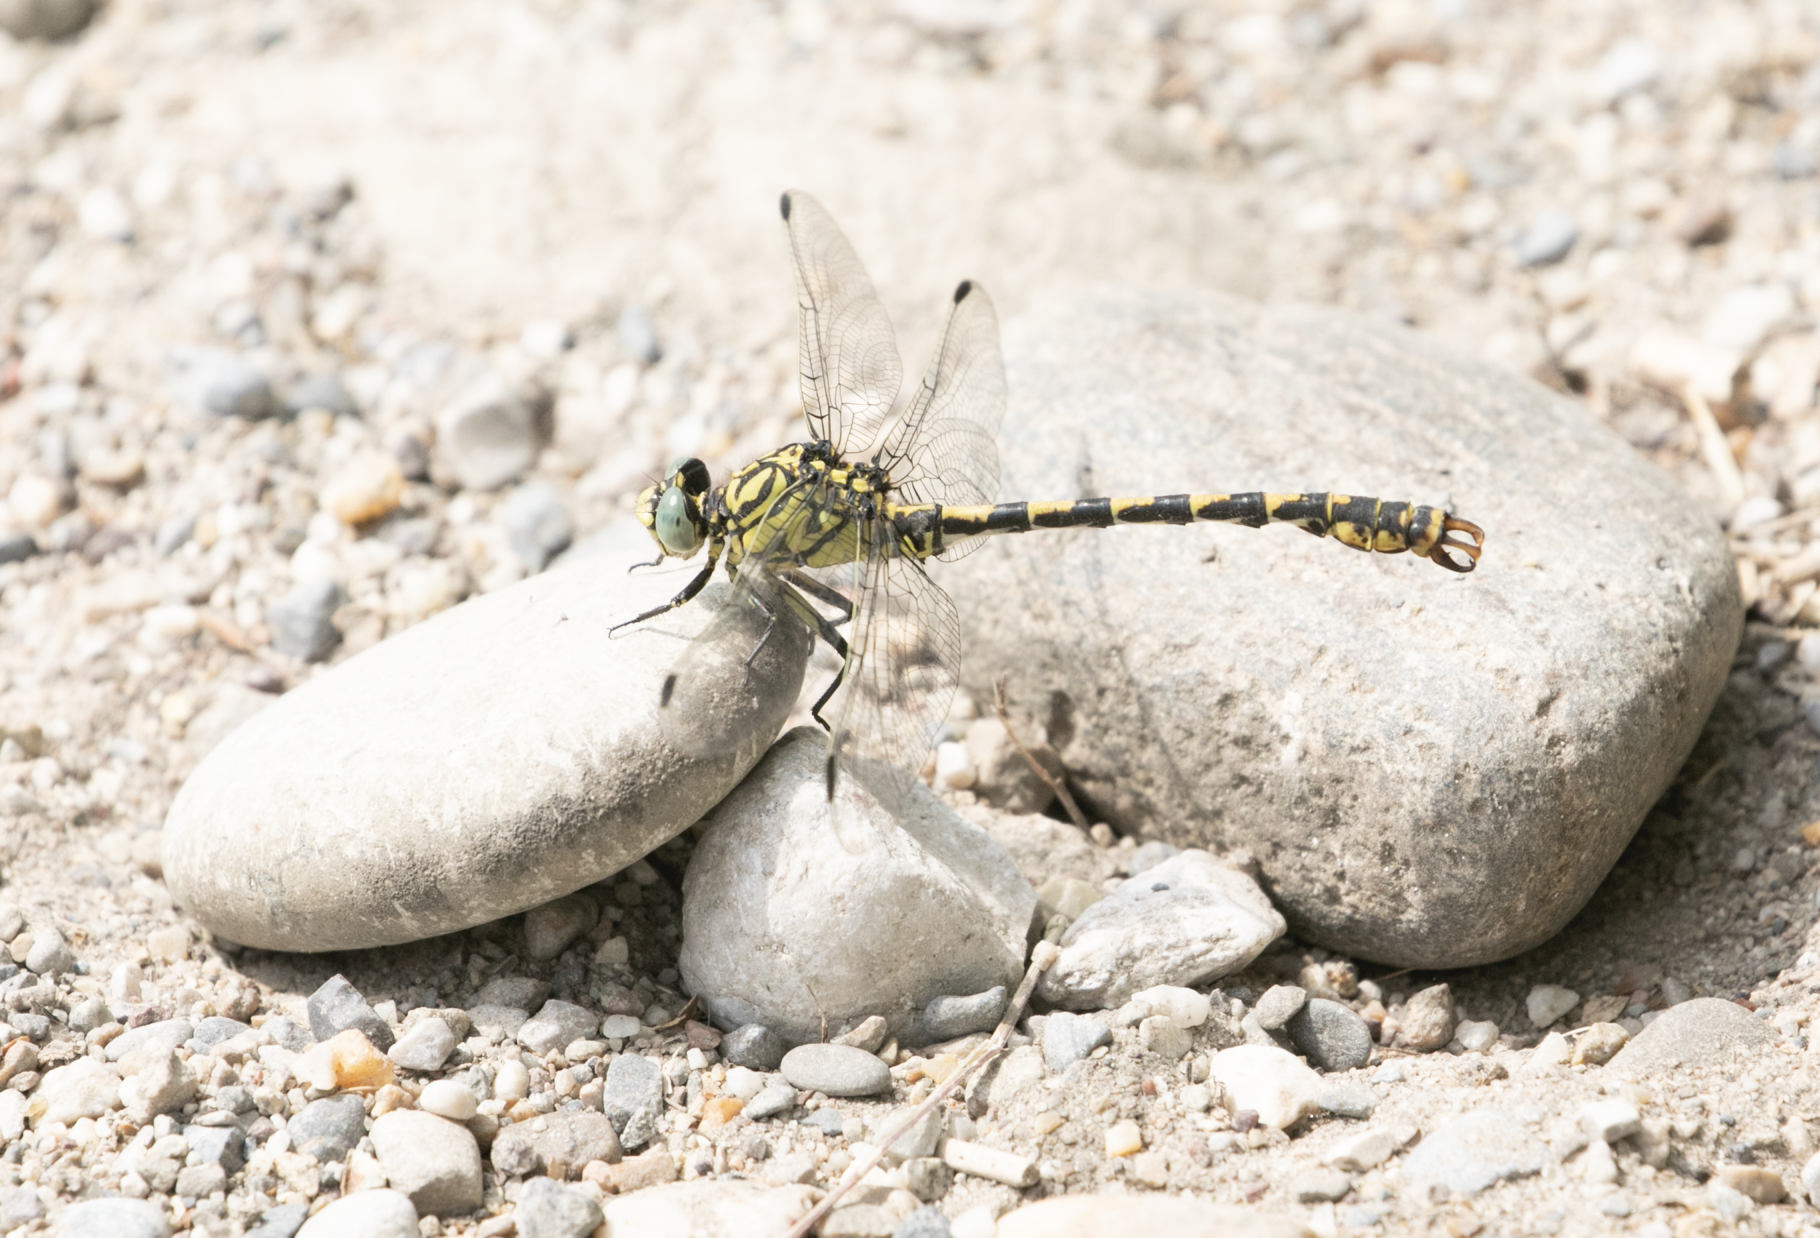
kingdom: Animalia
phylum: Arthropoda
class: Insecta
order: Odonata
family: Gomphidae
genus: Onychogomphus
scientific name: Onychogomphus forcipatus
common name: Small pincertail
